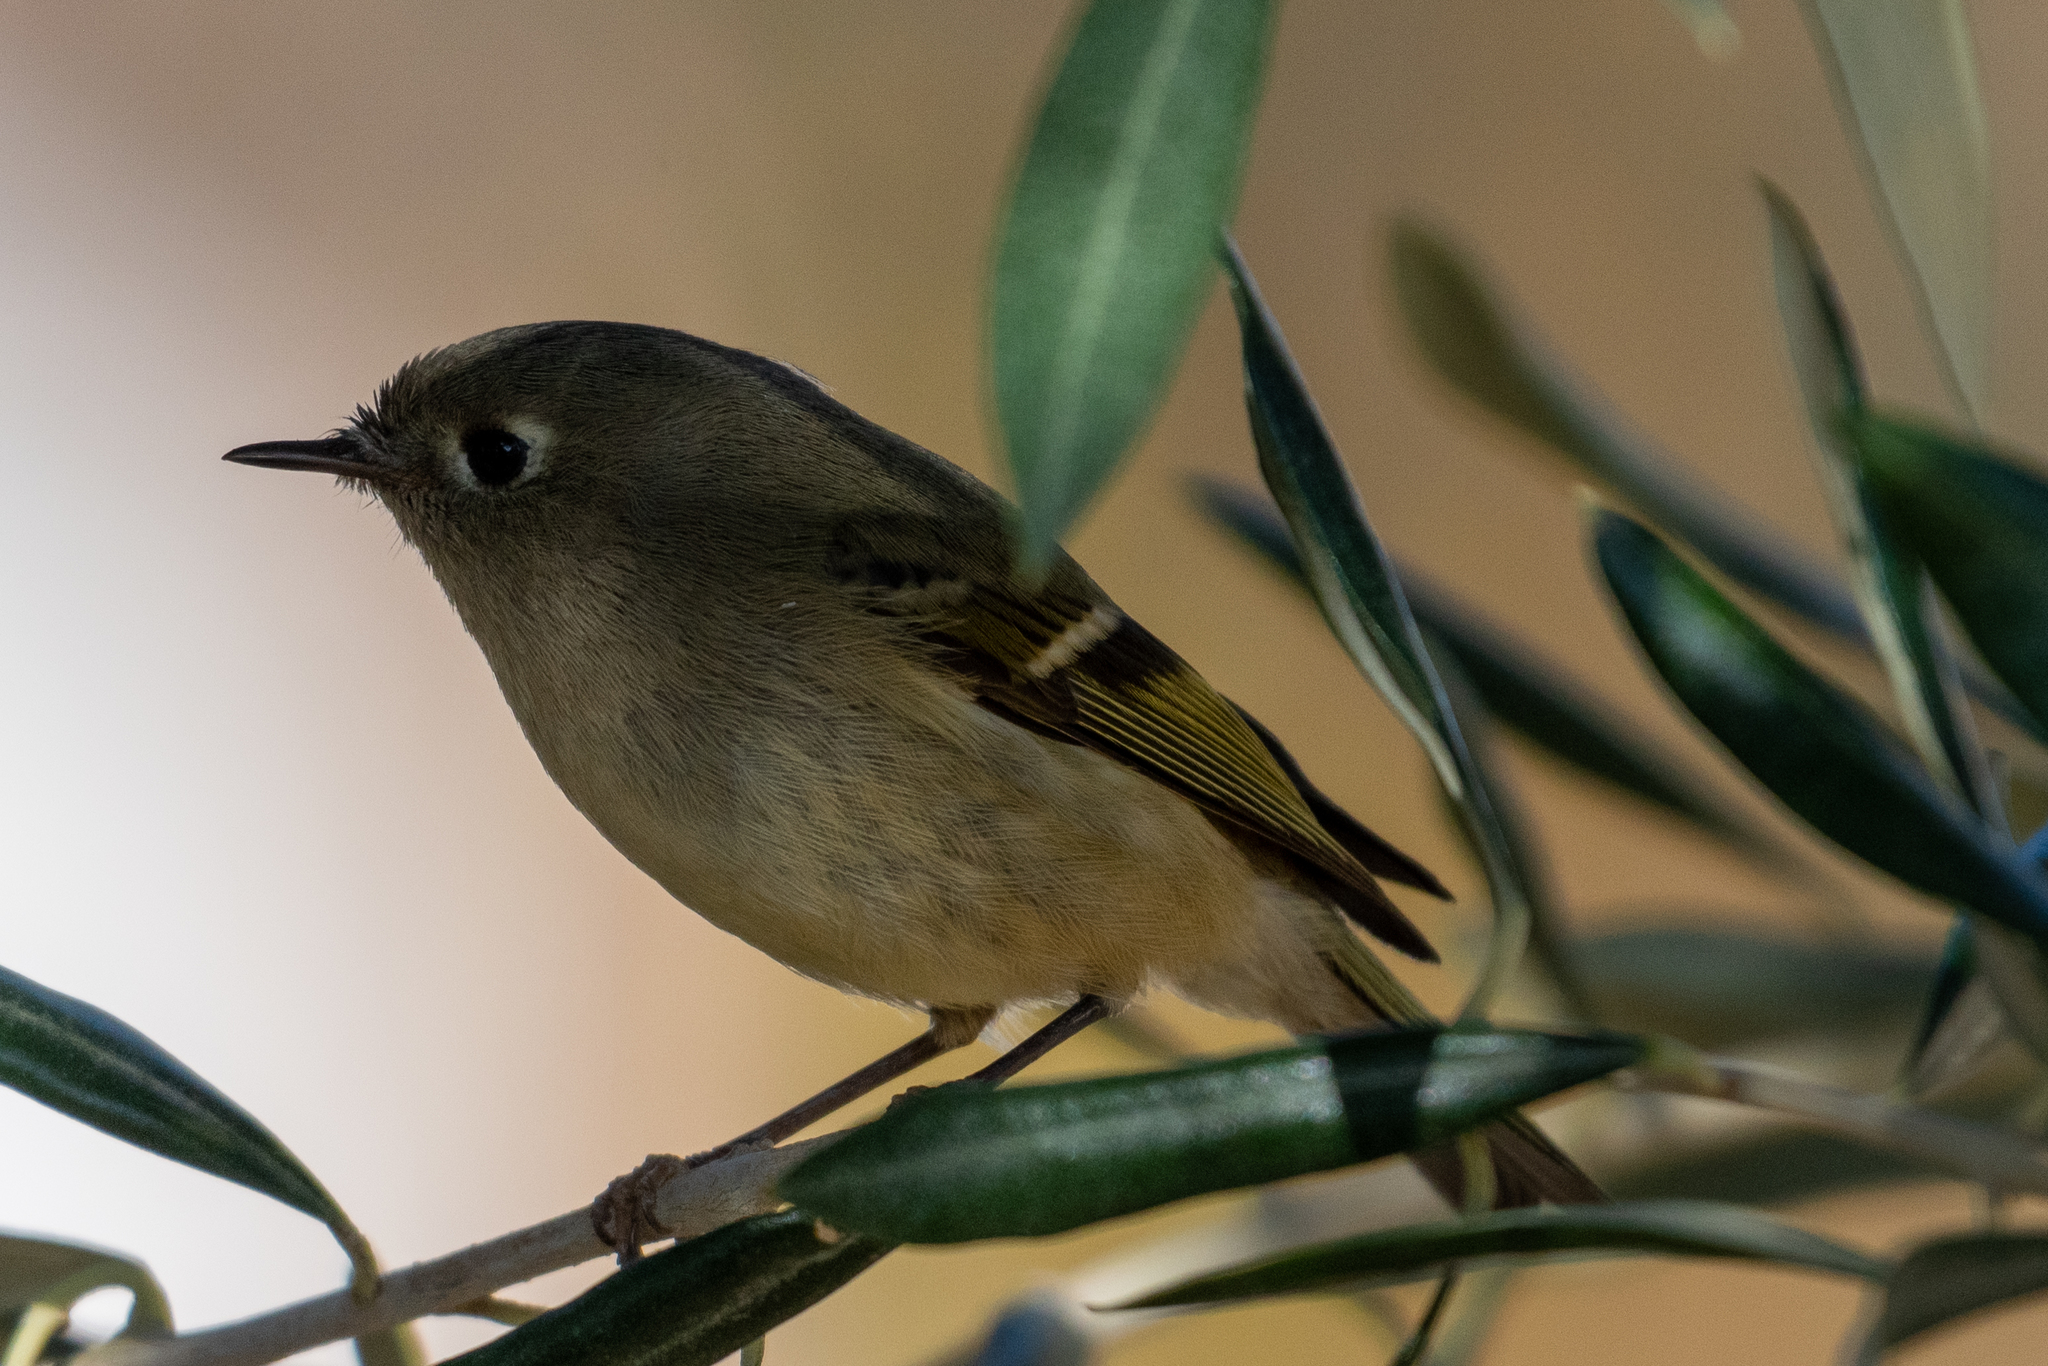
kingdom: Animalia
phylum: Chordata
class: Aves
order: Passeriformes
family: Regulidae
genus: Regulus
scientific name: Regulus calendula
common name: Ruby-crowned kinglet
